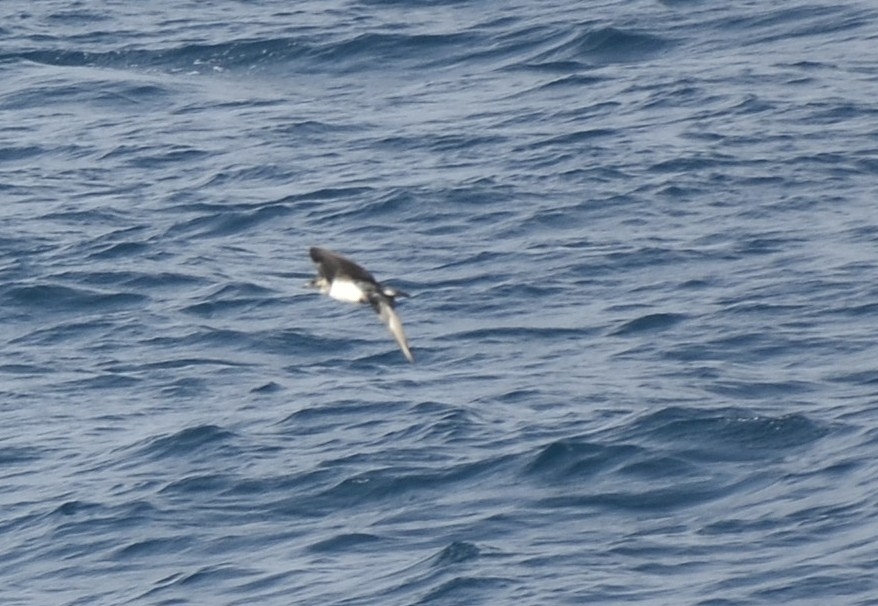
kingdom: Animalia
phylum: Chordata
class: Aves
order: Charadriiformes
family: Stercorariidae
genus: Stercorarius
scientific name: Stercorarius pomarinus
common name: Pomarine jaeger
